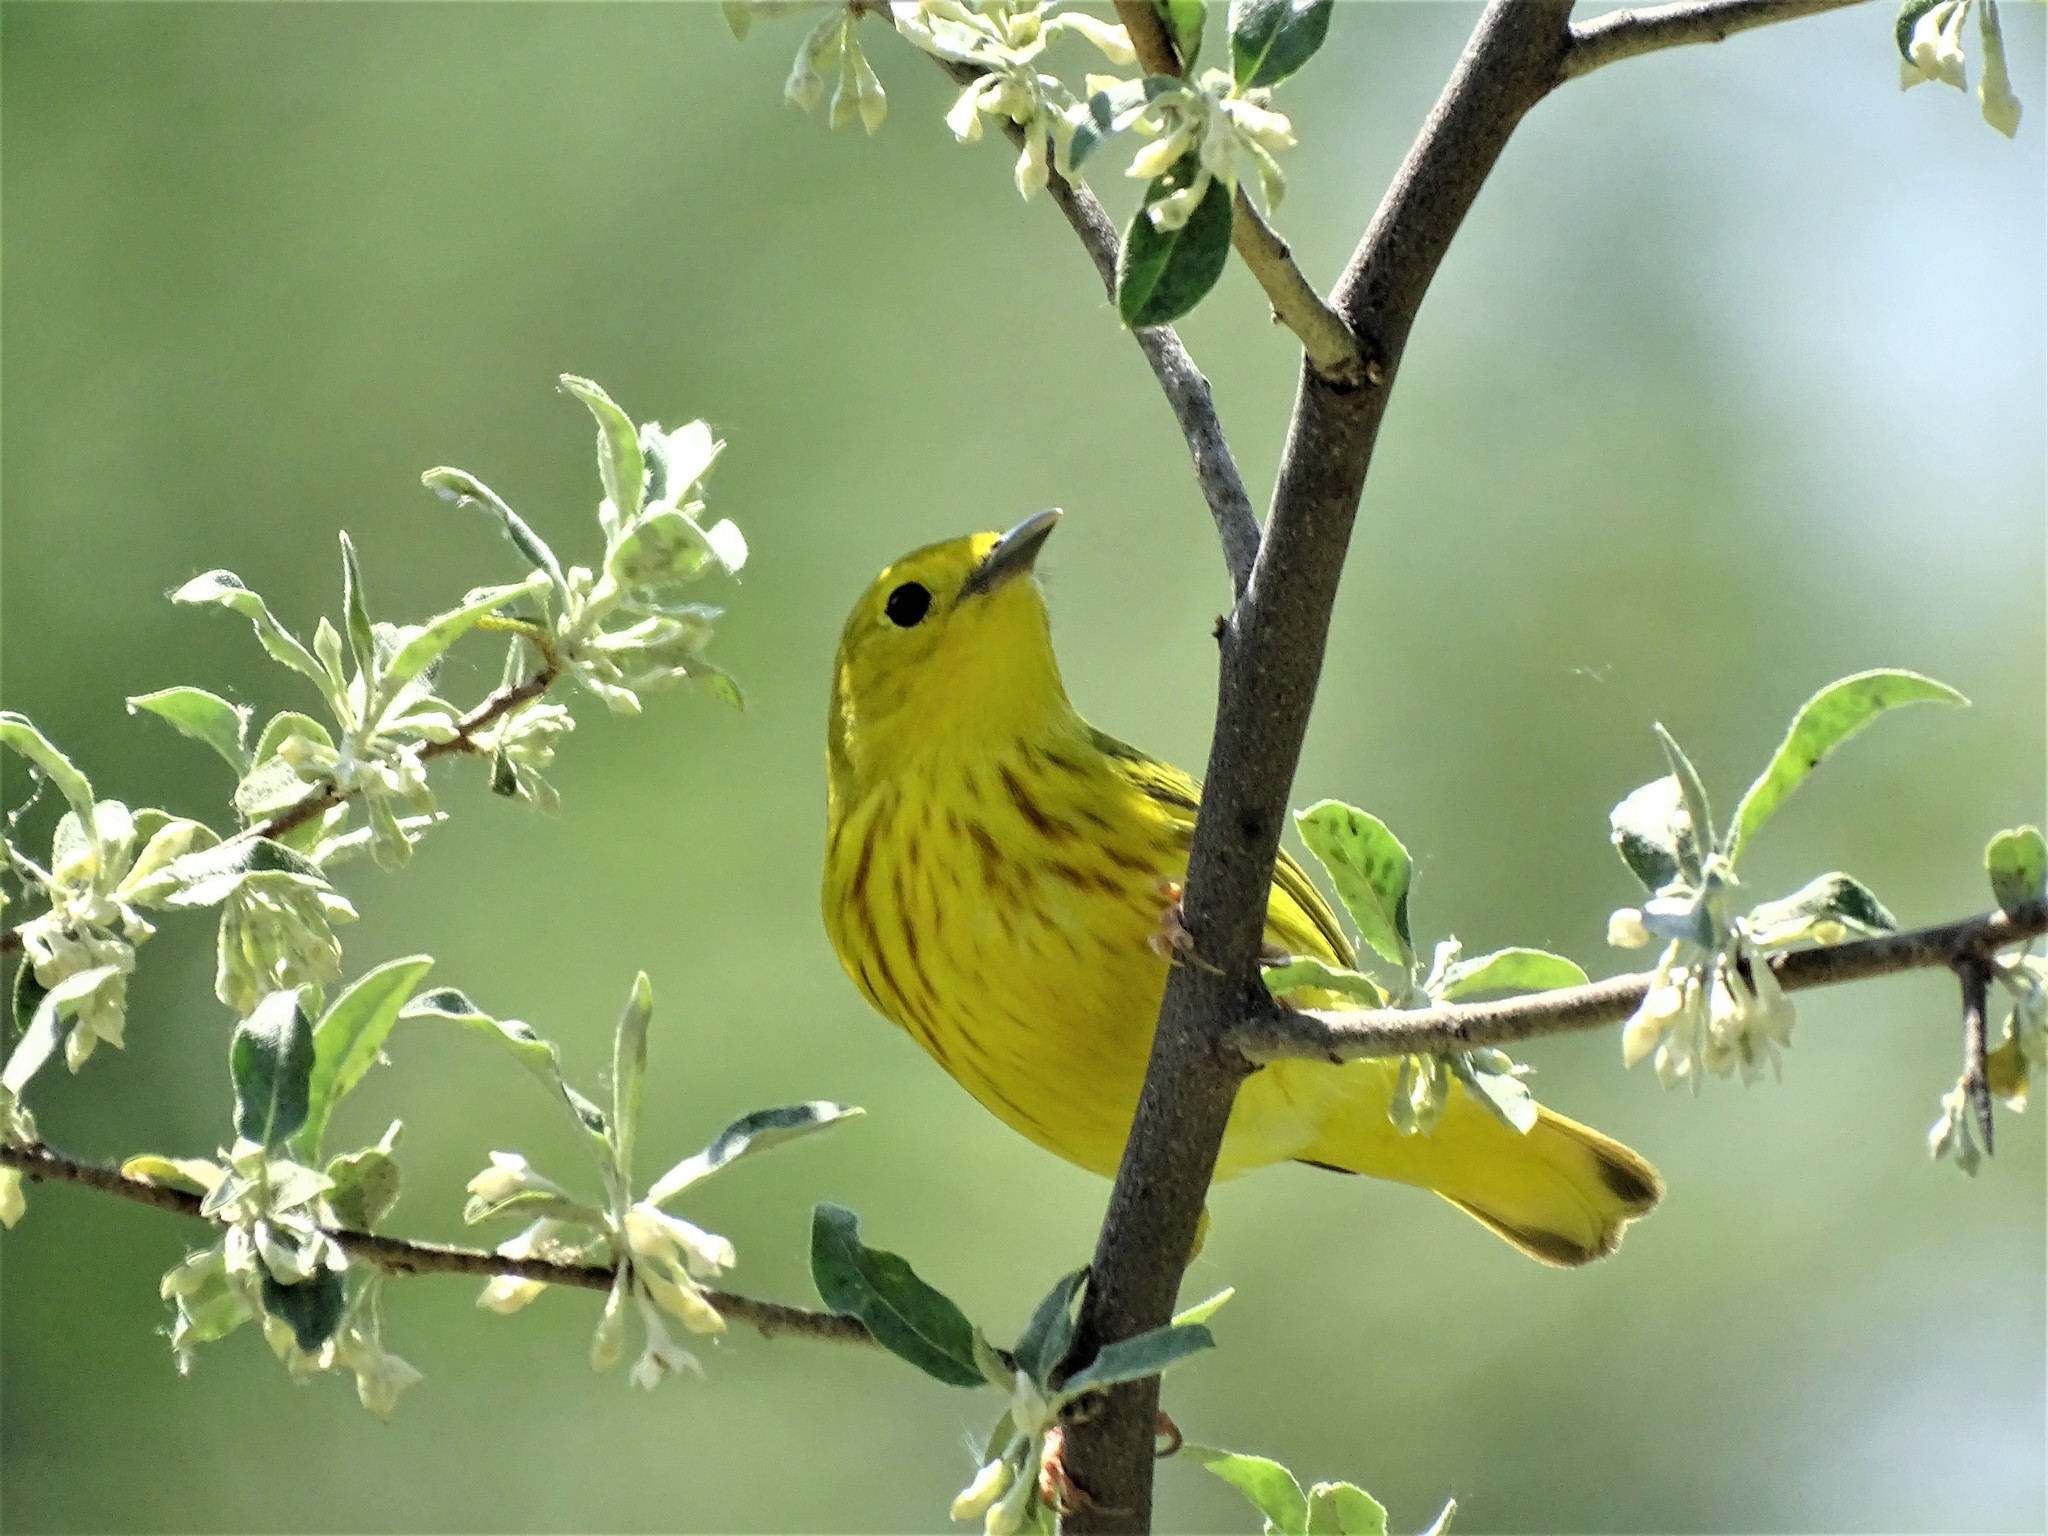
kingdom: Animalia
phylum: Chordata
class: Aves
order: Passeriformes
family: Parulidae
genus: Setophaga
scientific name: Setophaga petechia
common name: Yellow warbler
